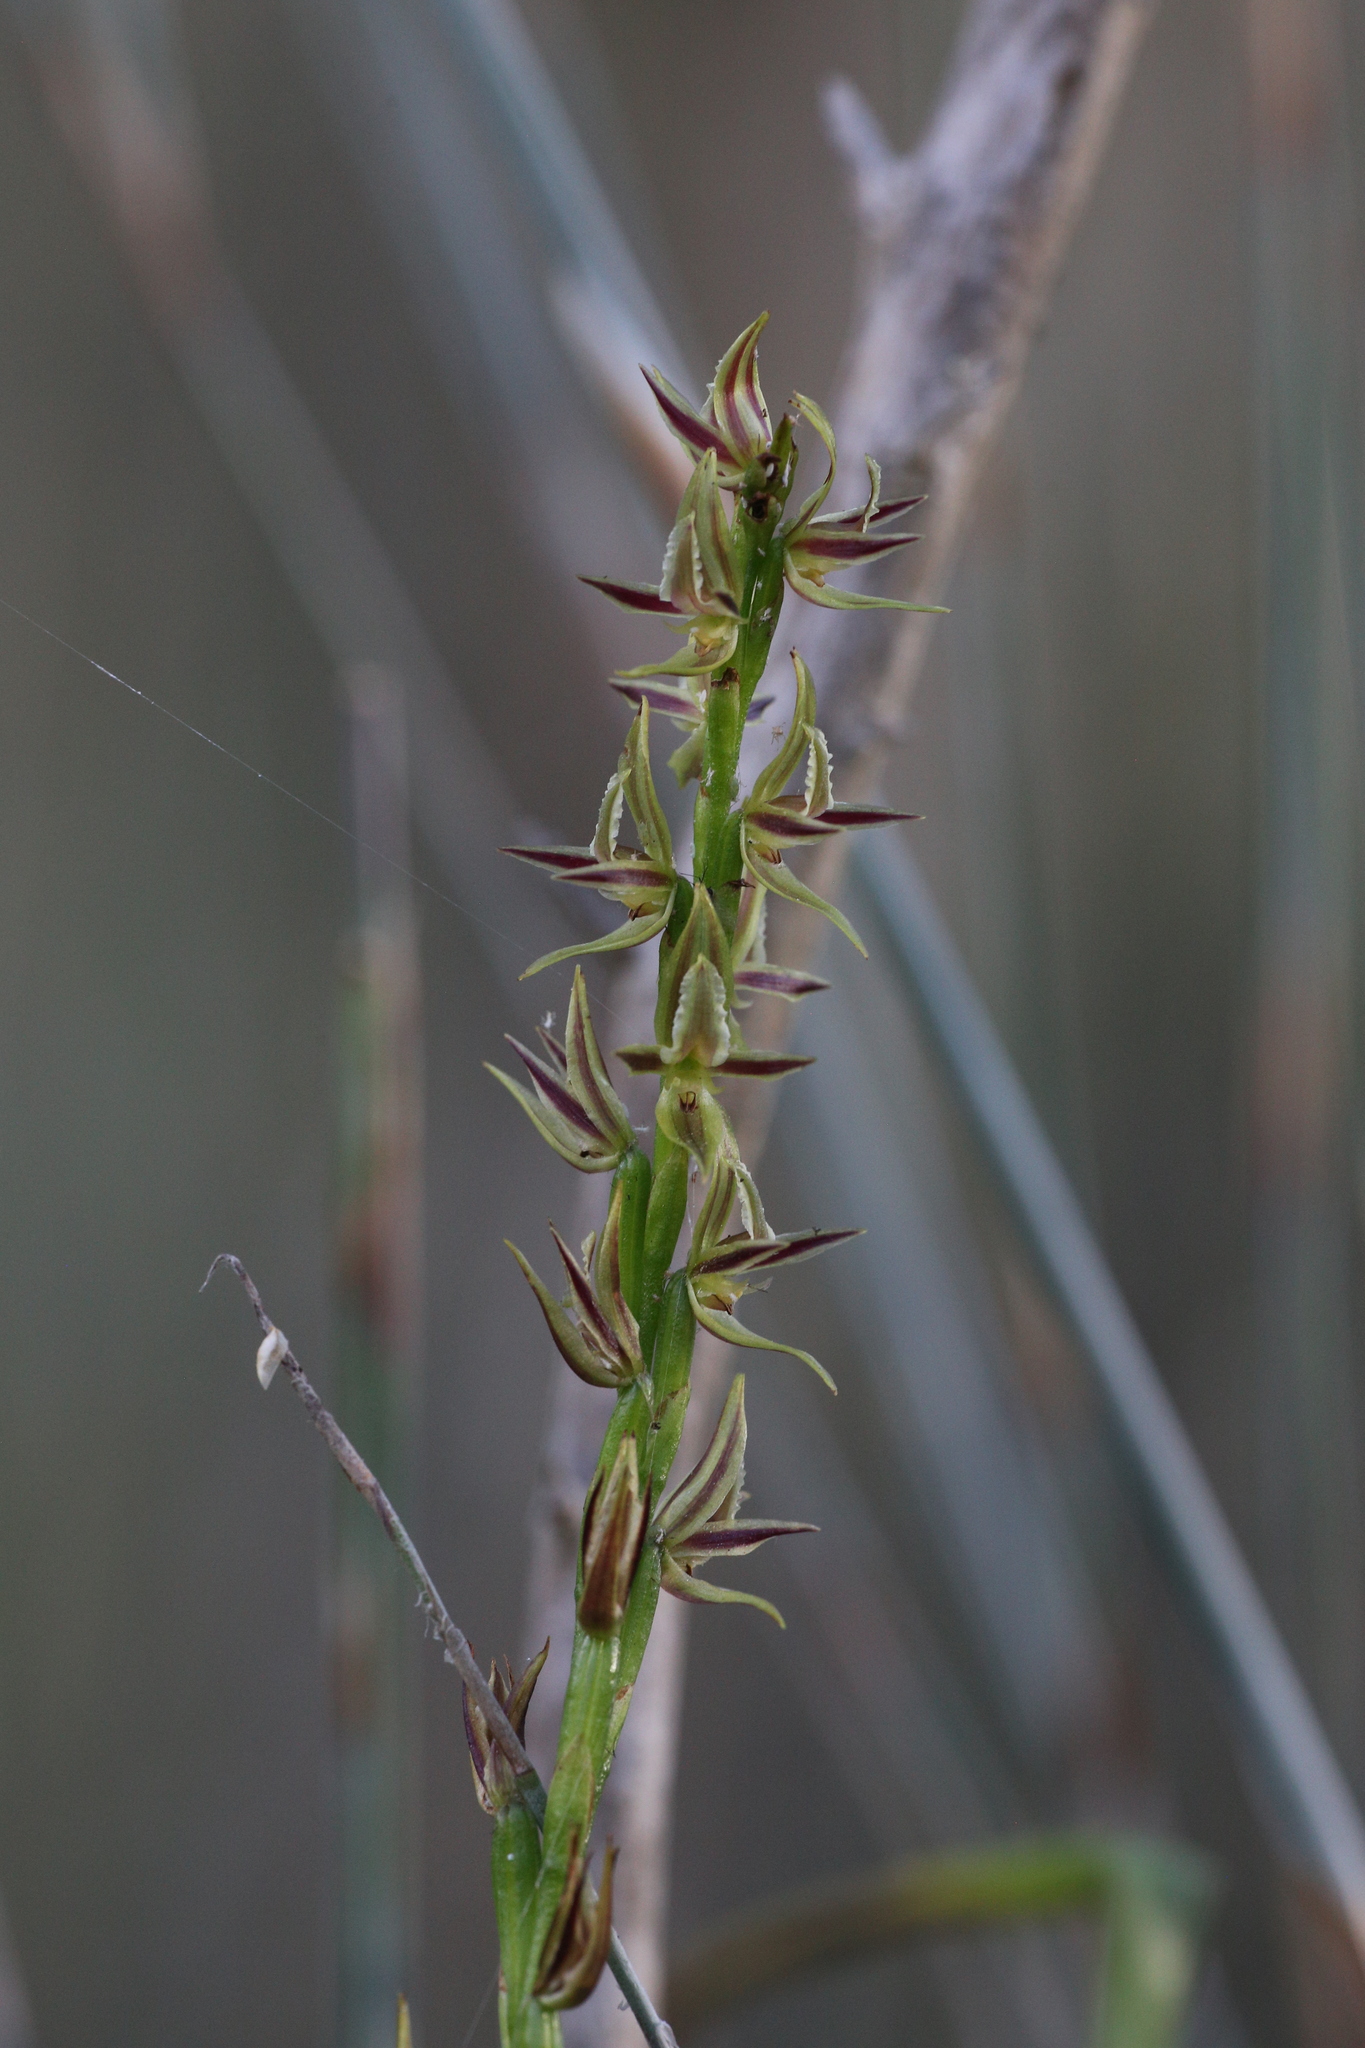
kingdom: Plantae
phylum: Tracheophyta
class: Liliopsida
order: Asparagales
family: Orchidaceae
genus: Prasophyllum
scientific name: Prasophyllum drummondii
